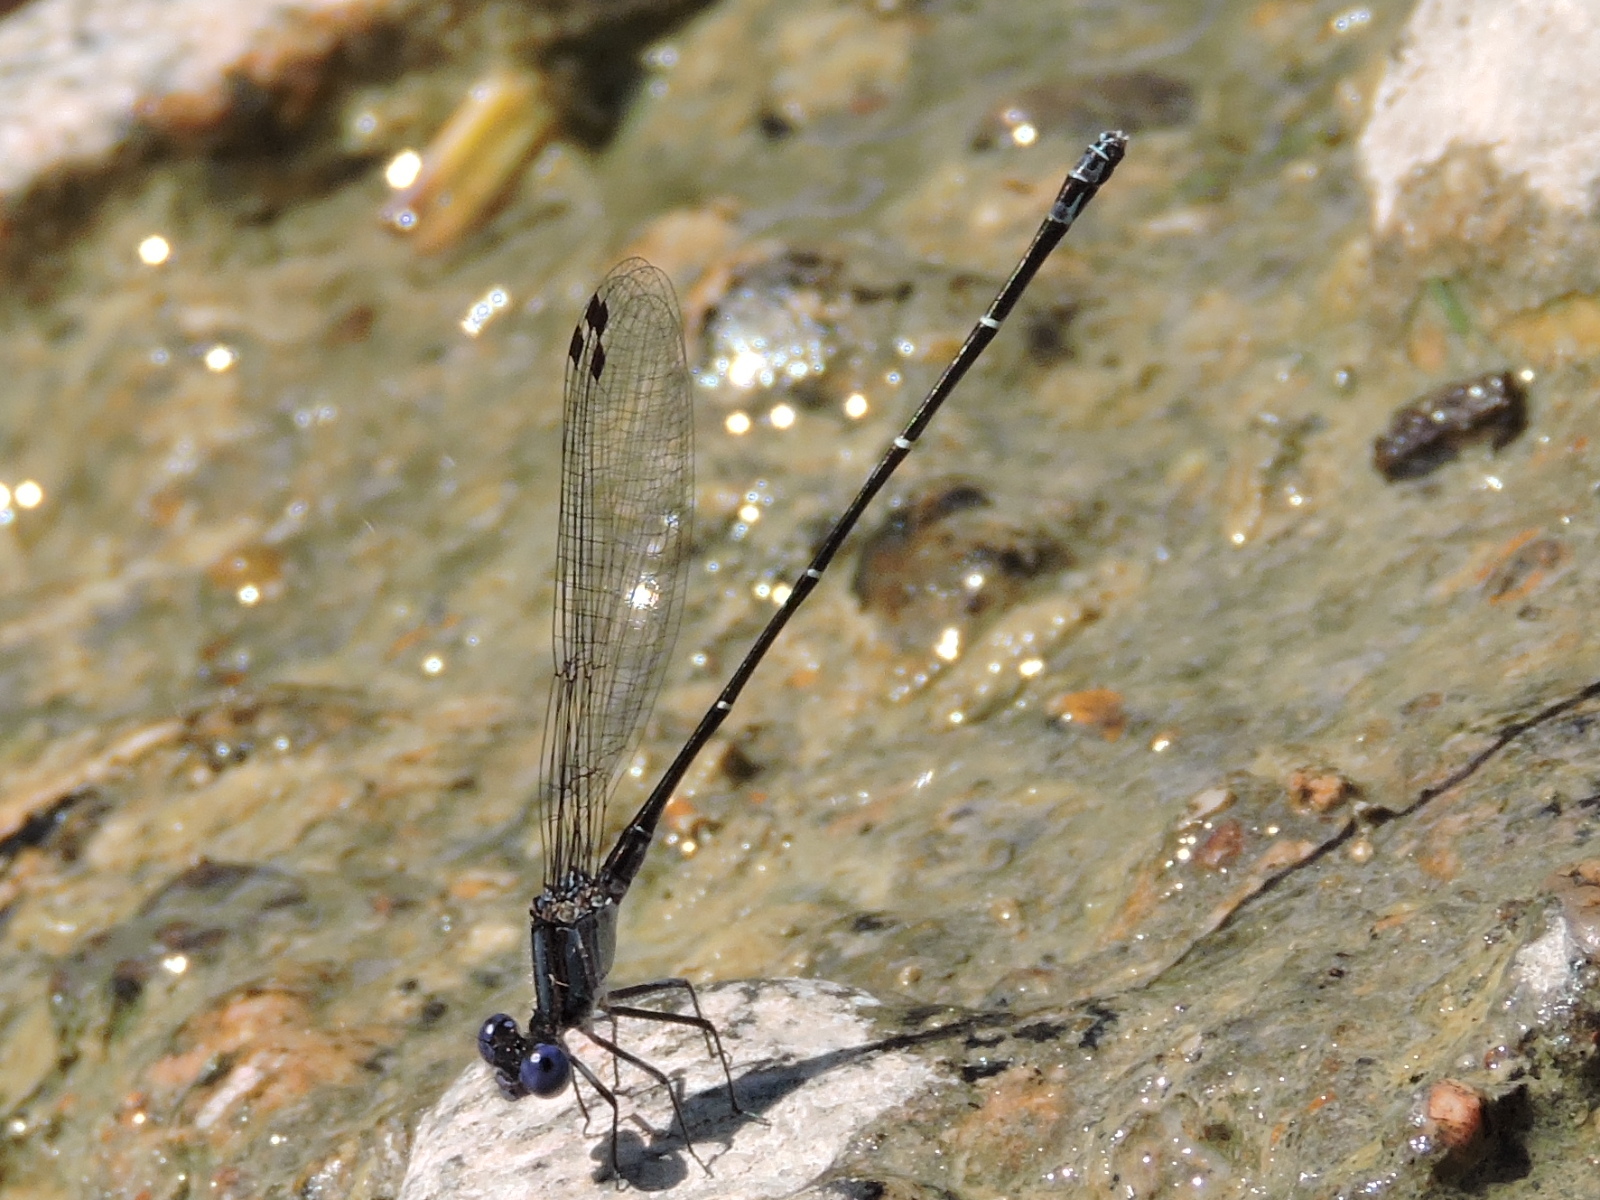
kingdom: Animalia
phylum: Arthropoda
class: Insecta
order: Odonata
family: Coenagrionidae
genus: Argia
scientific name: Argia translata
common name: Dusky dancer
